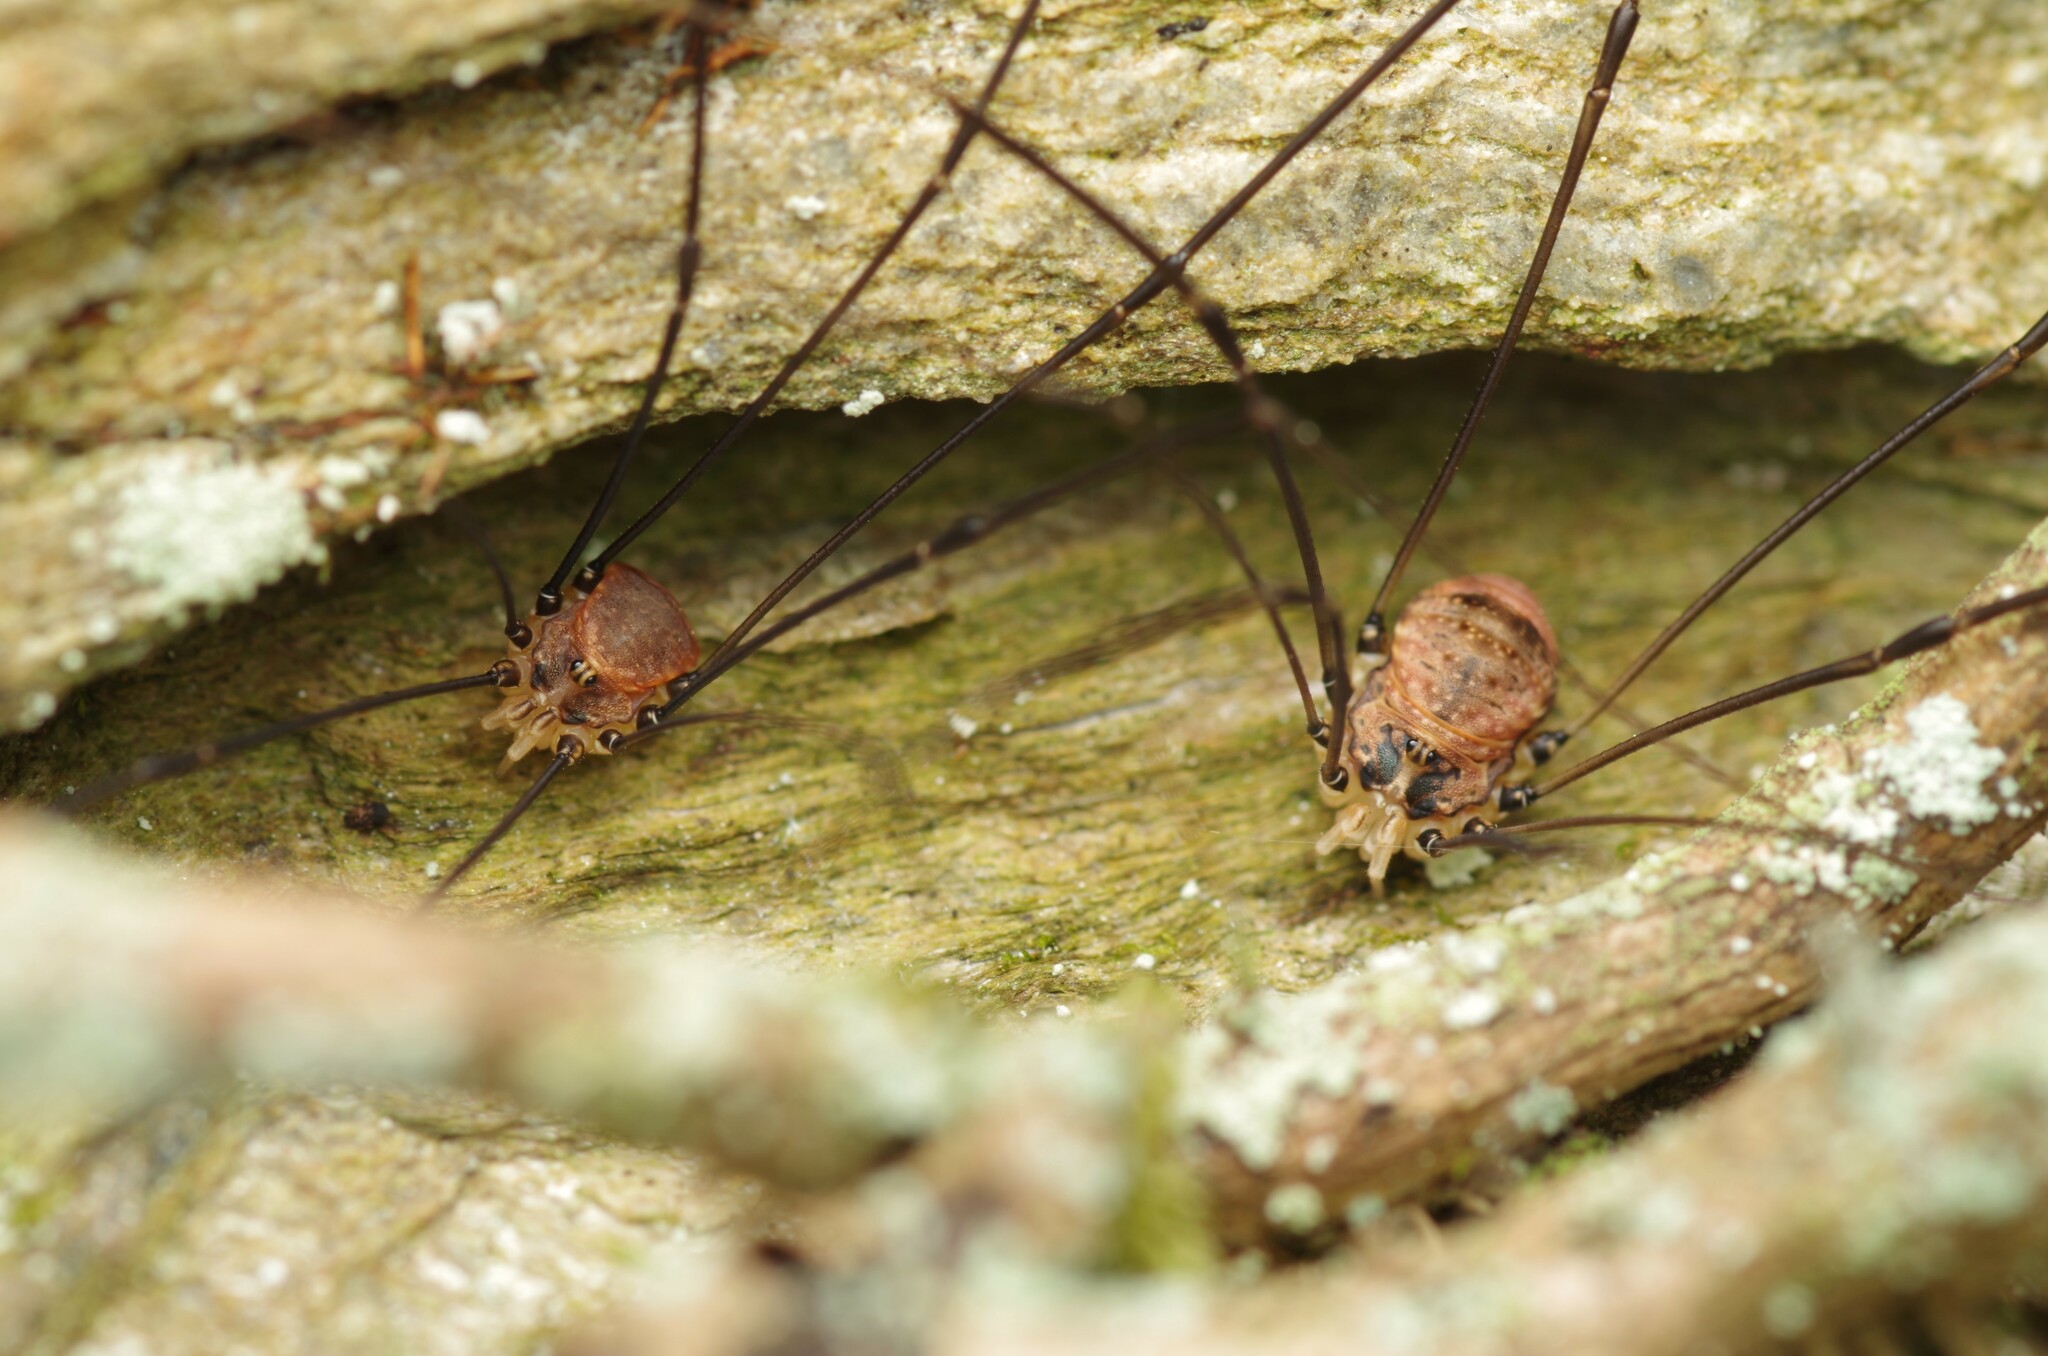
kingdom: Animalia
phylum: Arthropoda
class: Arachnida
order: Opiliones
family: Sclerosomatidae
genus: Leiobunum
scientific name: Leiobunum blackwalli
